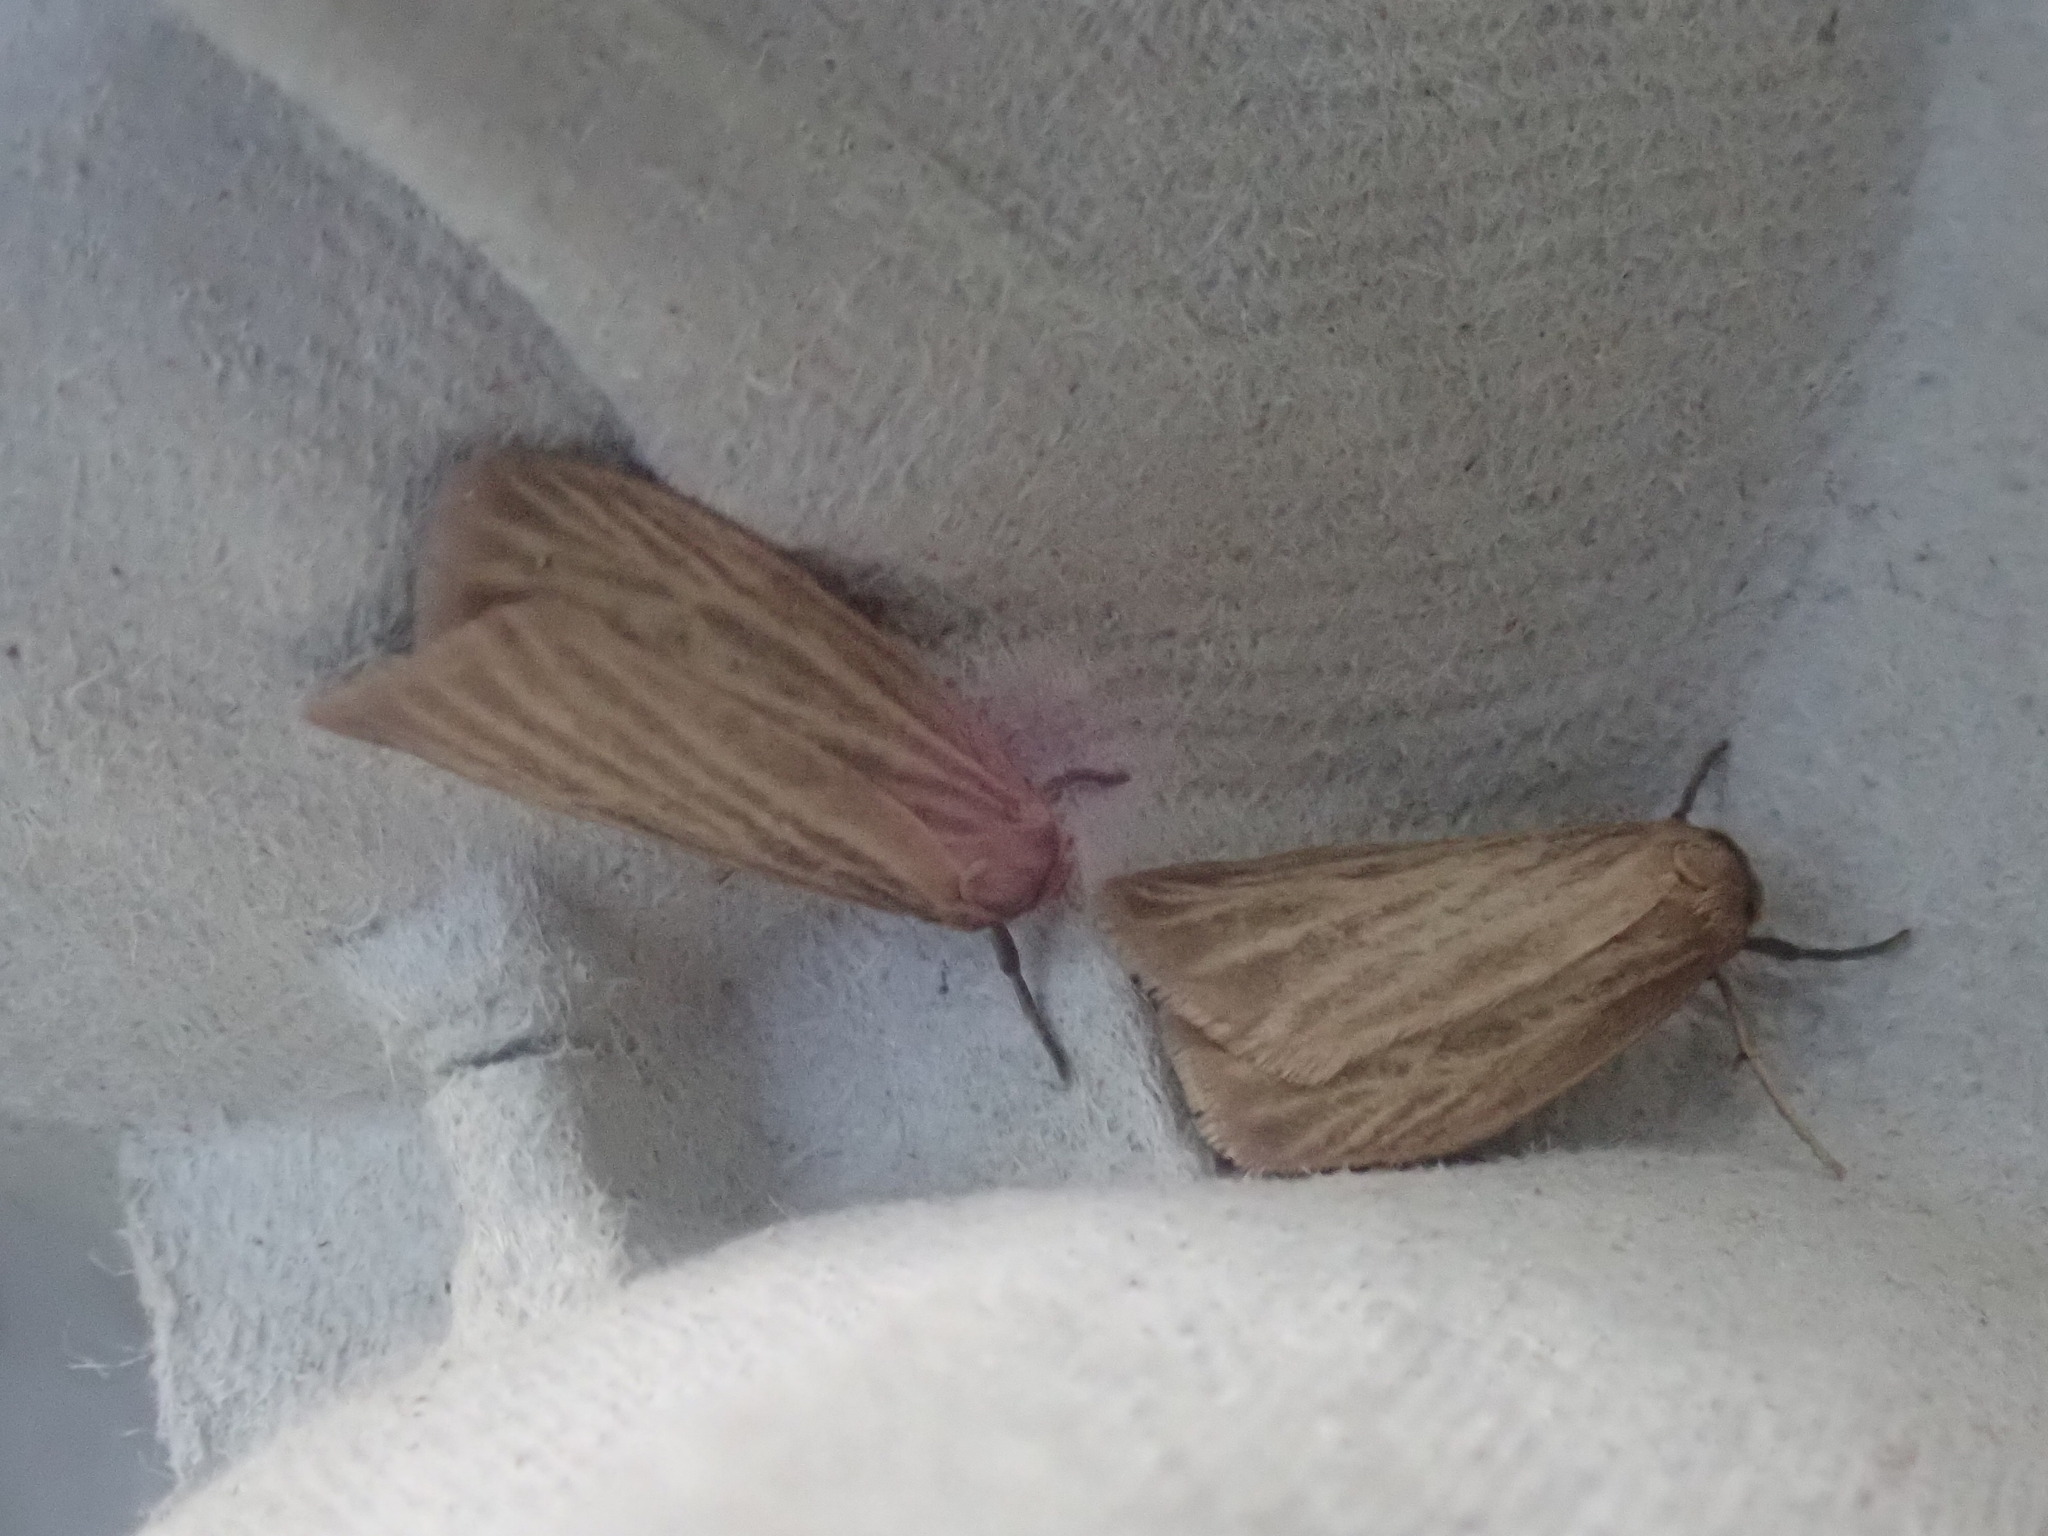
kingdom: Animalia
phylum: Arthropoda
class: Insecta
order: Lepidoptera
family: Erebidae
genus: Crambidia
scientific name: Crambidia pallida
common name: Pale lichen moth
